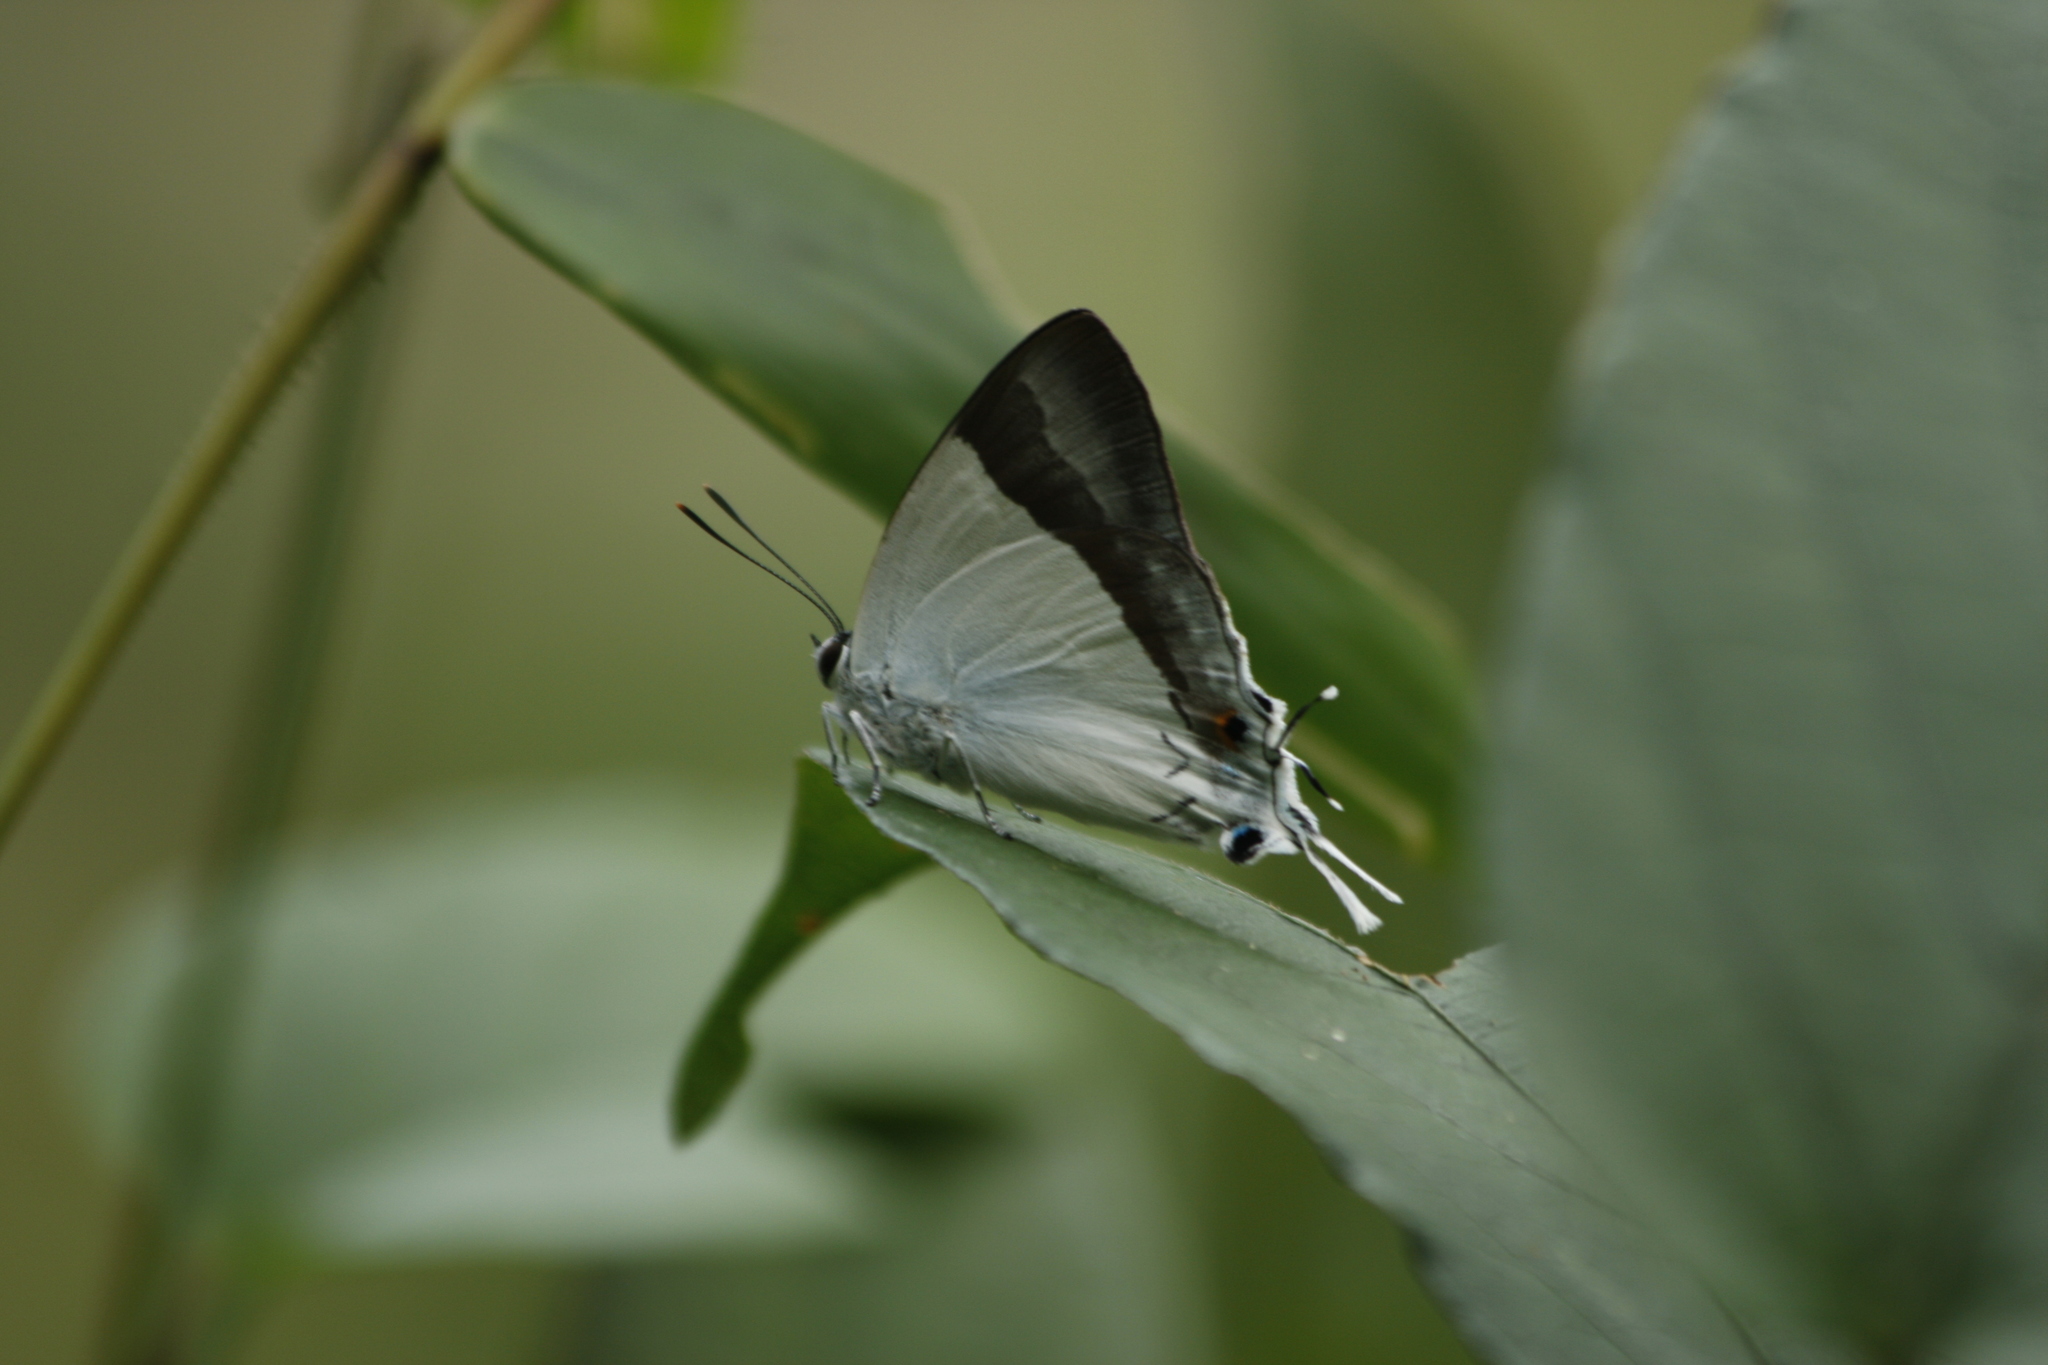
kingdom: Animalia
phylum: Arthropoda
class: Insecta
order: Lepidoptera
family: Hesperiidae
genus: Rachana
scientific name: Rachana jalindra
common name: Banded royal
